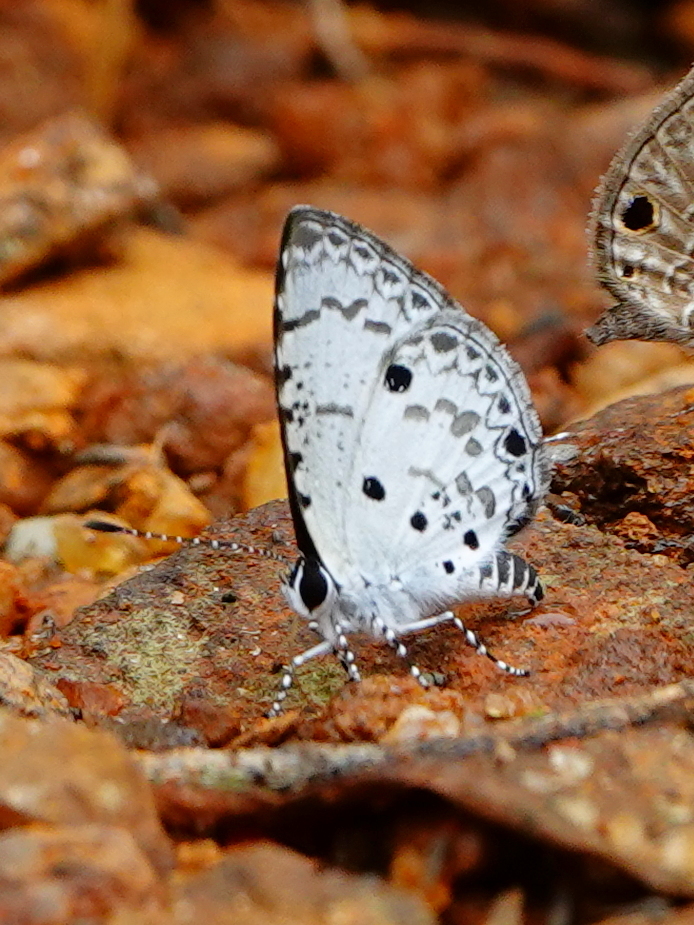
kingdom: Animalia
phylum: Arthropoda
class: Insecta
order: Lepidoptera
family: Lycaenidae
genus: Megisba
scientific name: Megisba malaya
